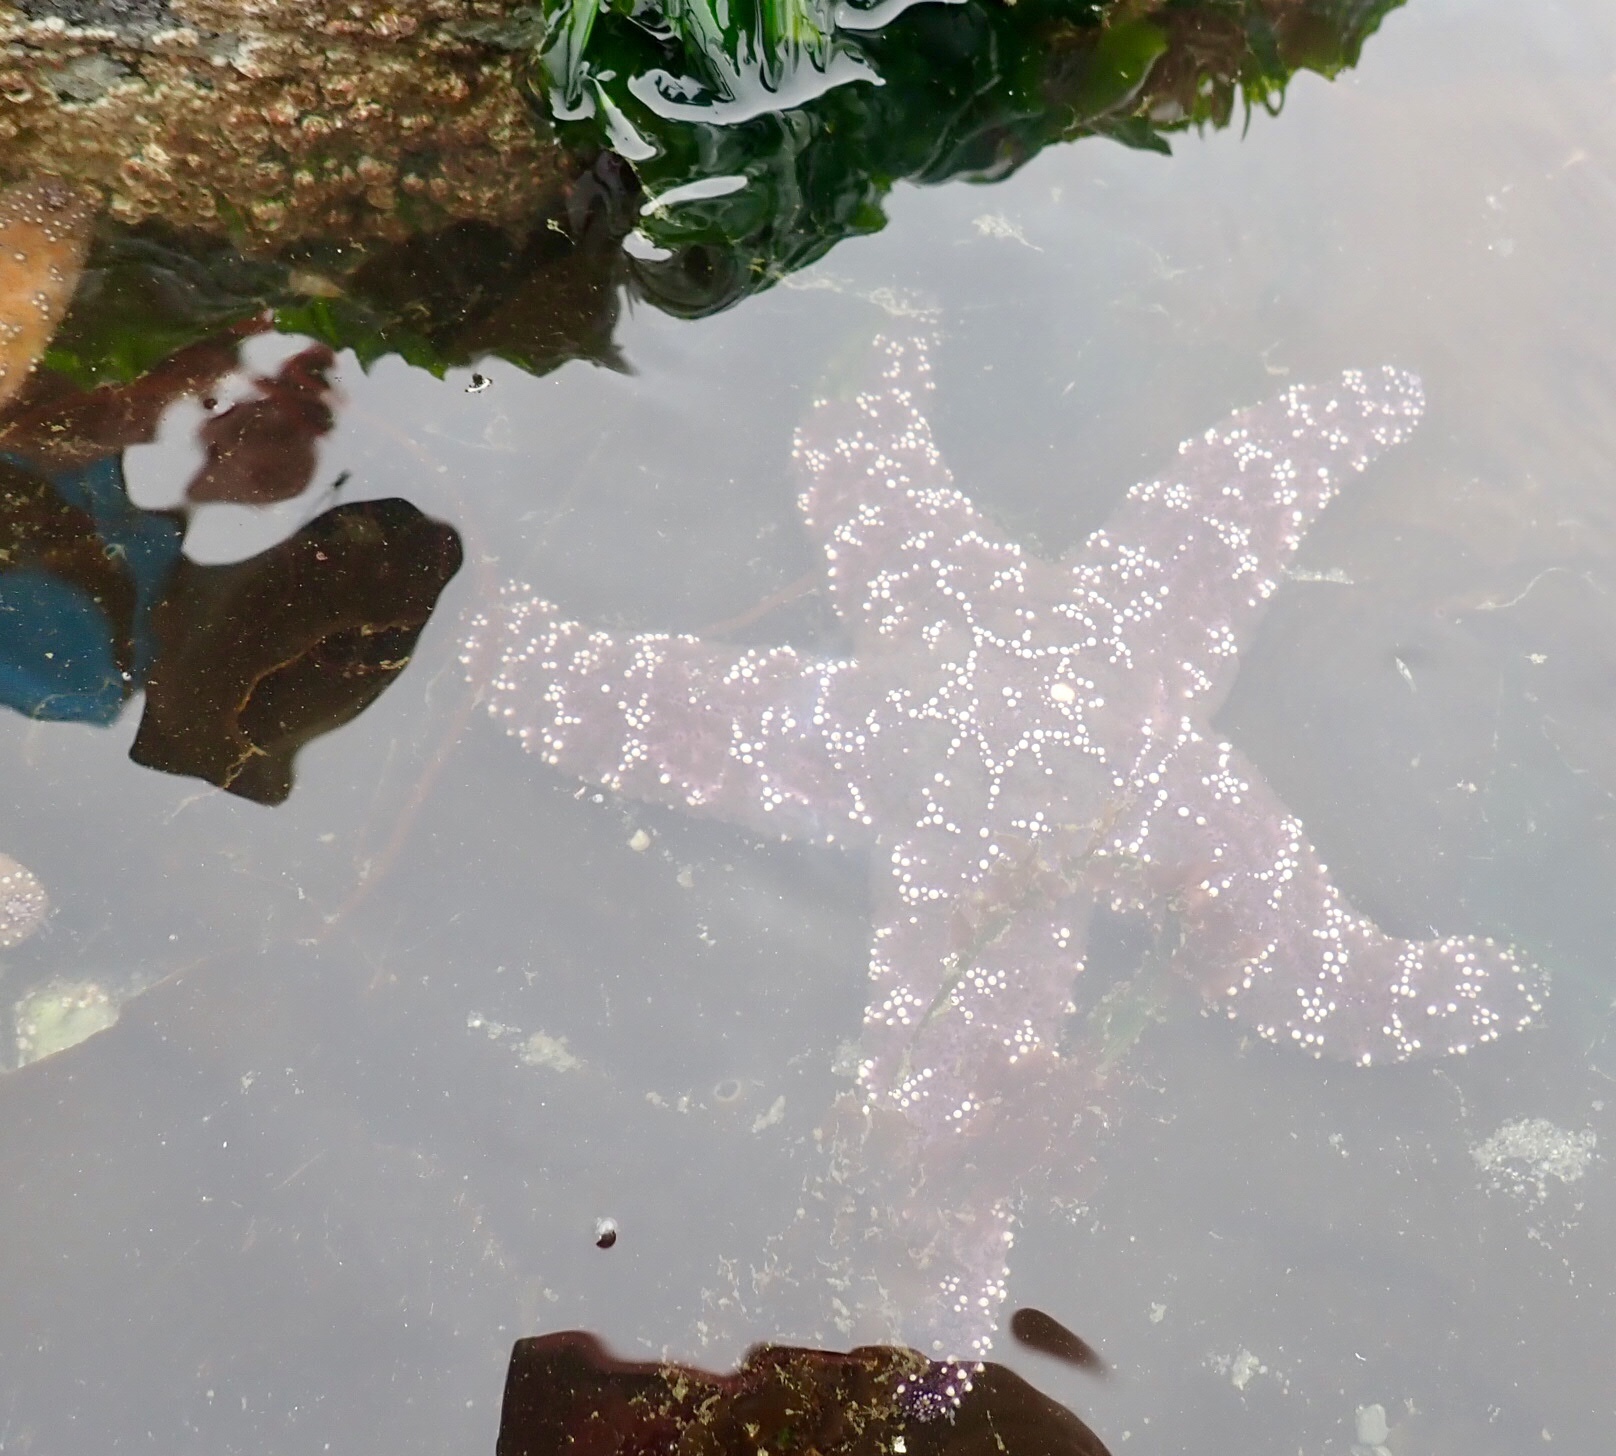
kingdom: Animalia
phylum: Echinodermata
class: Asteroidea
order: Forcipulatida
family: Asteriidae
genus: Pisaster
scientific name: Pisaster ochraceus
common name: Ochre stars
